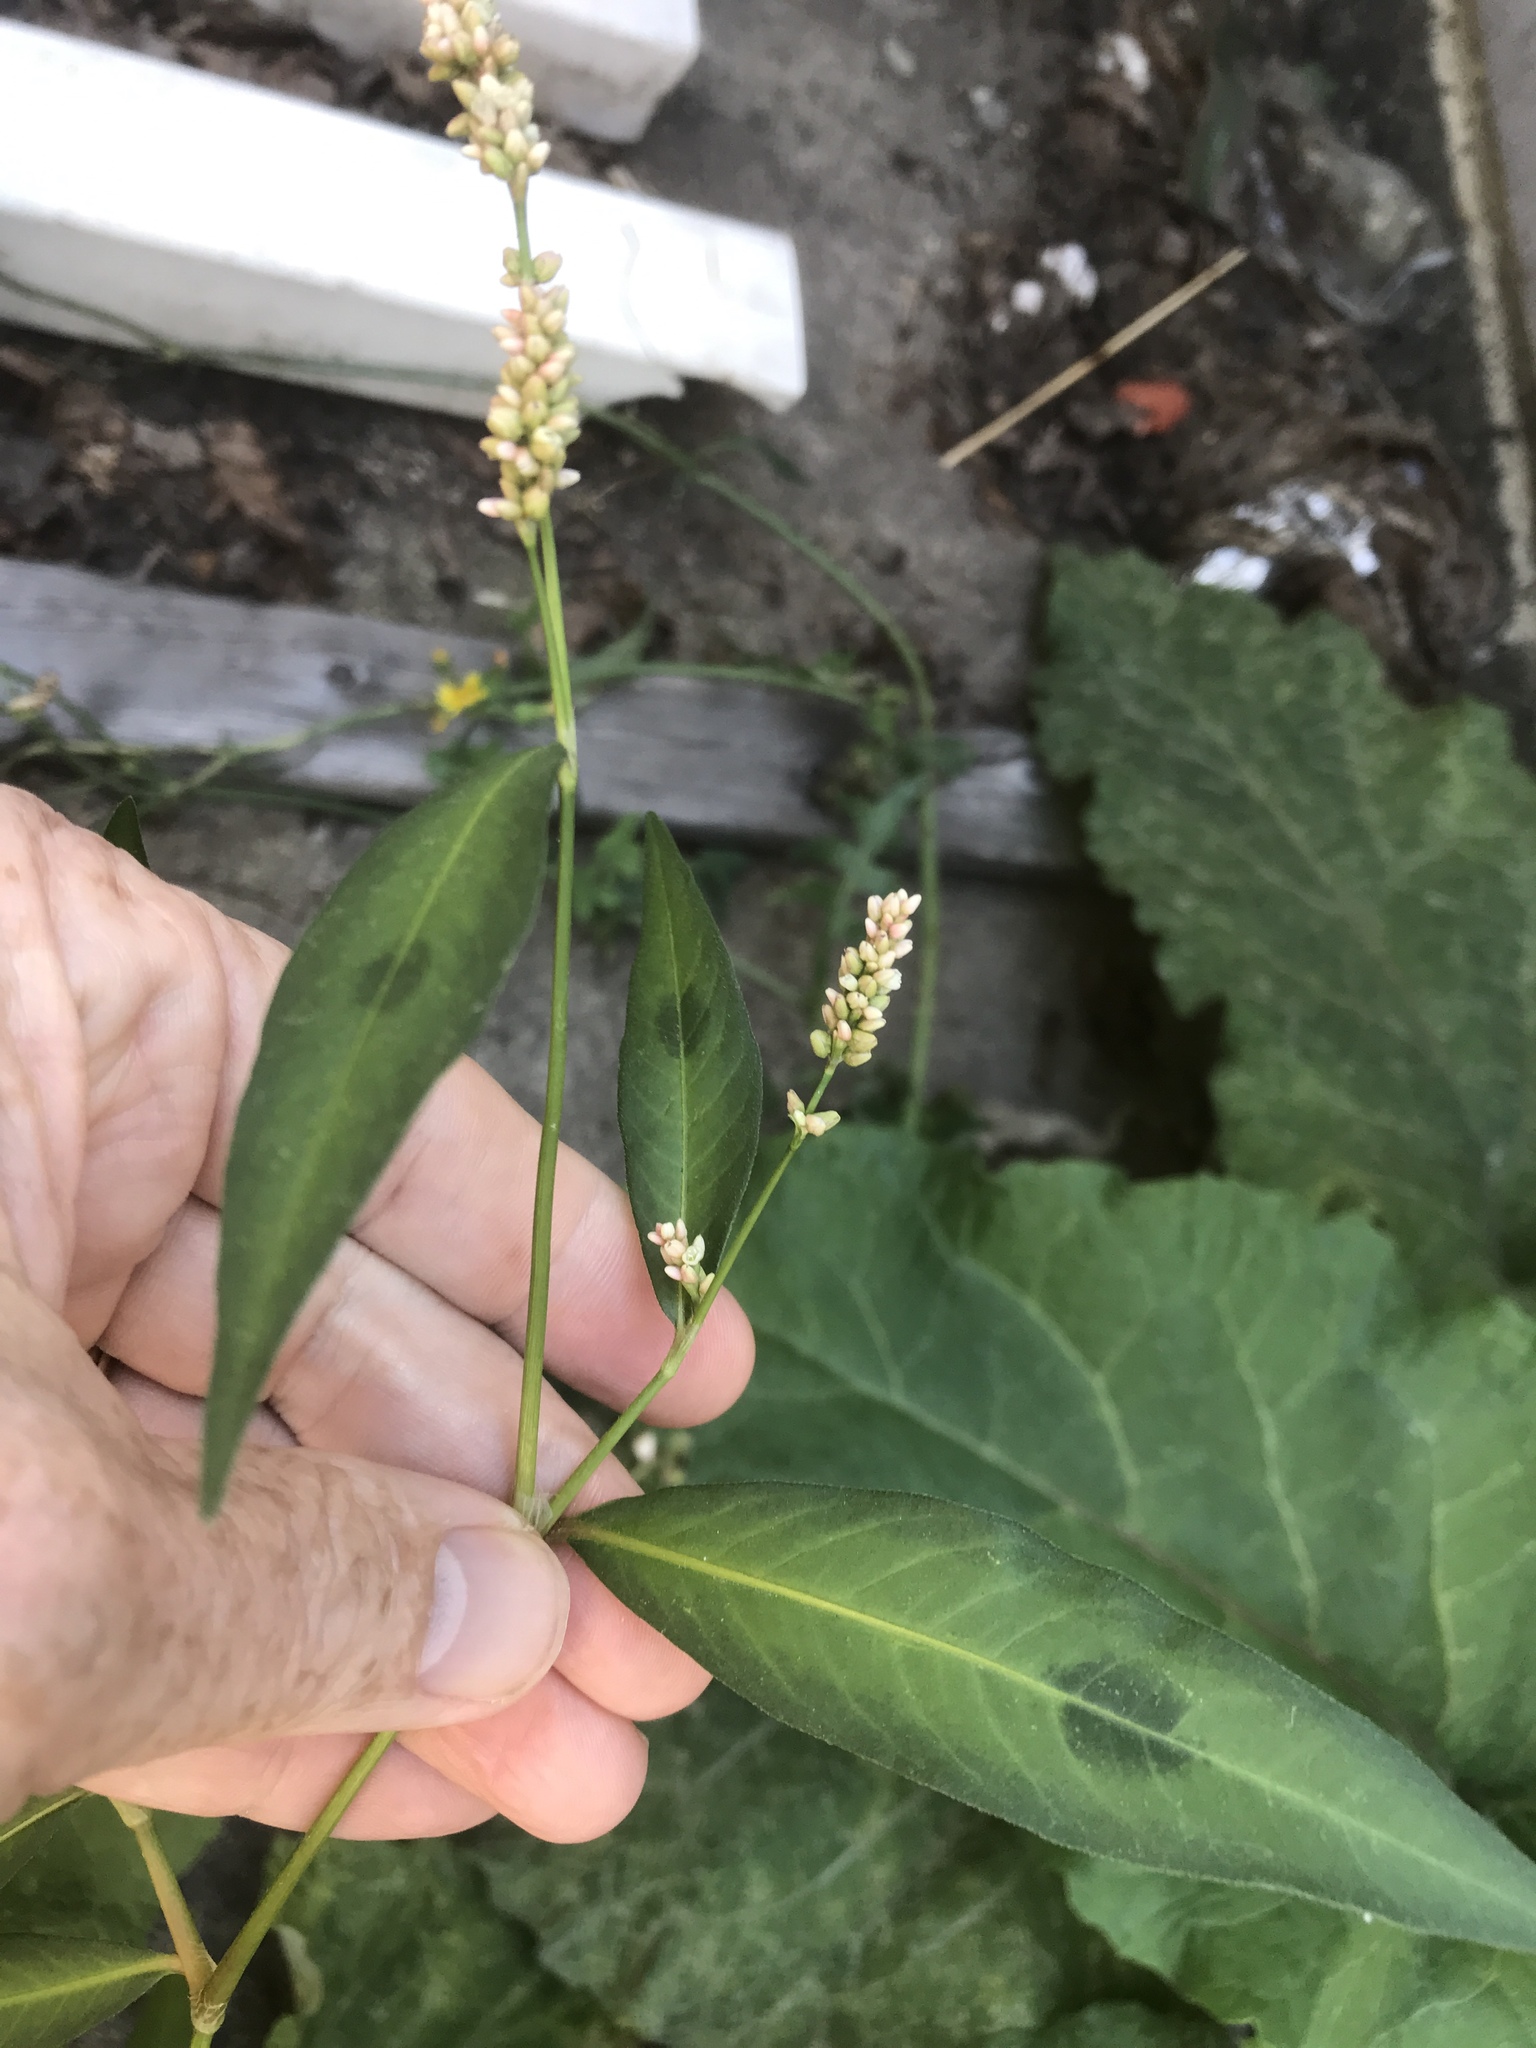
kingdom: Plantae
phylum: Tracheophyta
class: Magnoliopsida
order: Caryophyllales
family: Polygonaceae
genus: Persicaria
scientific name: Persicaria maculosa
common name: Redshank
